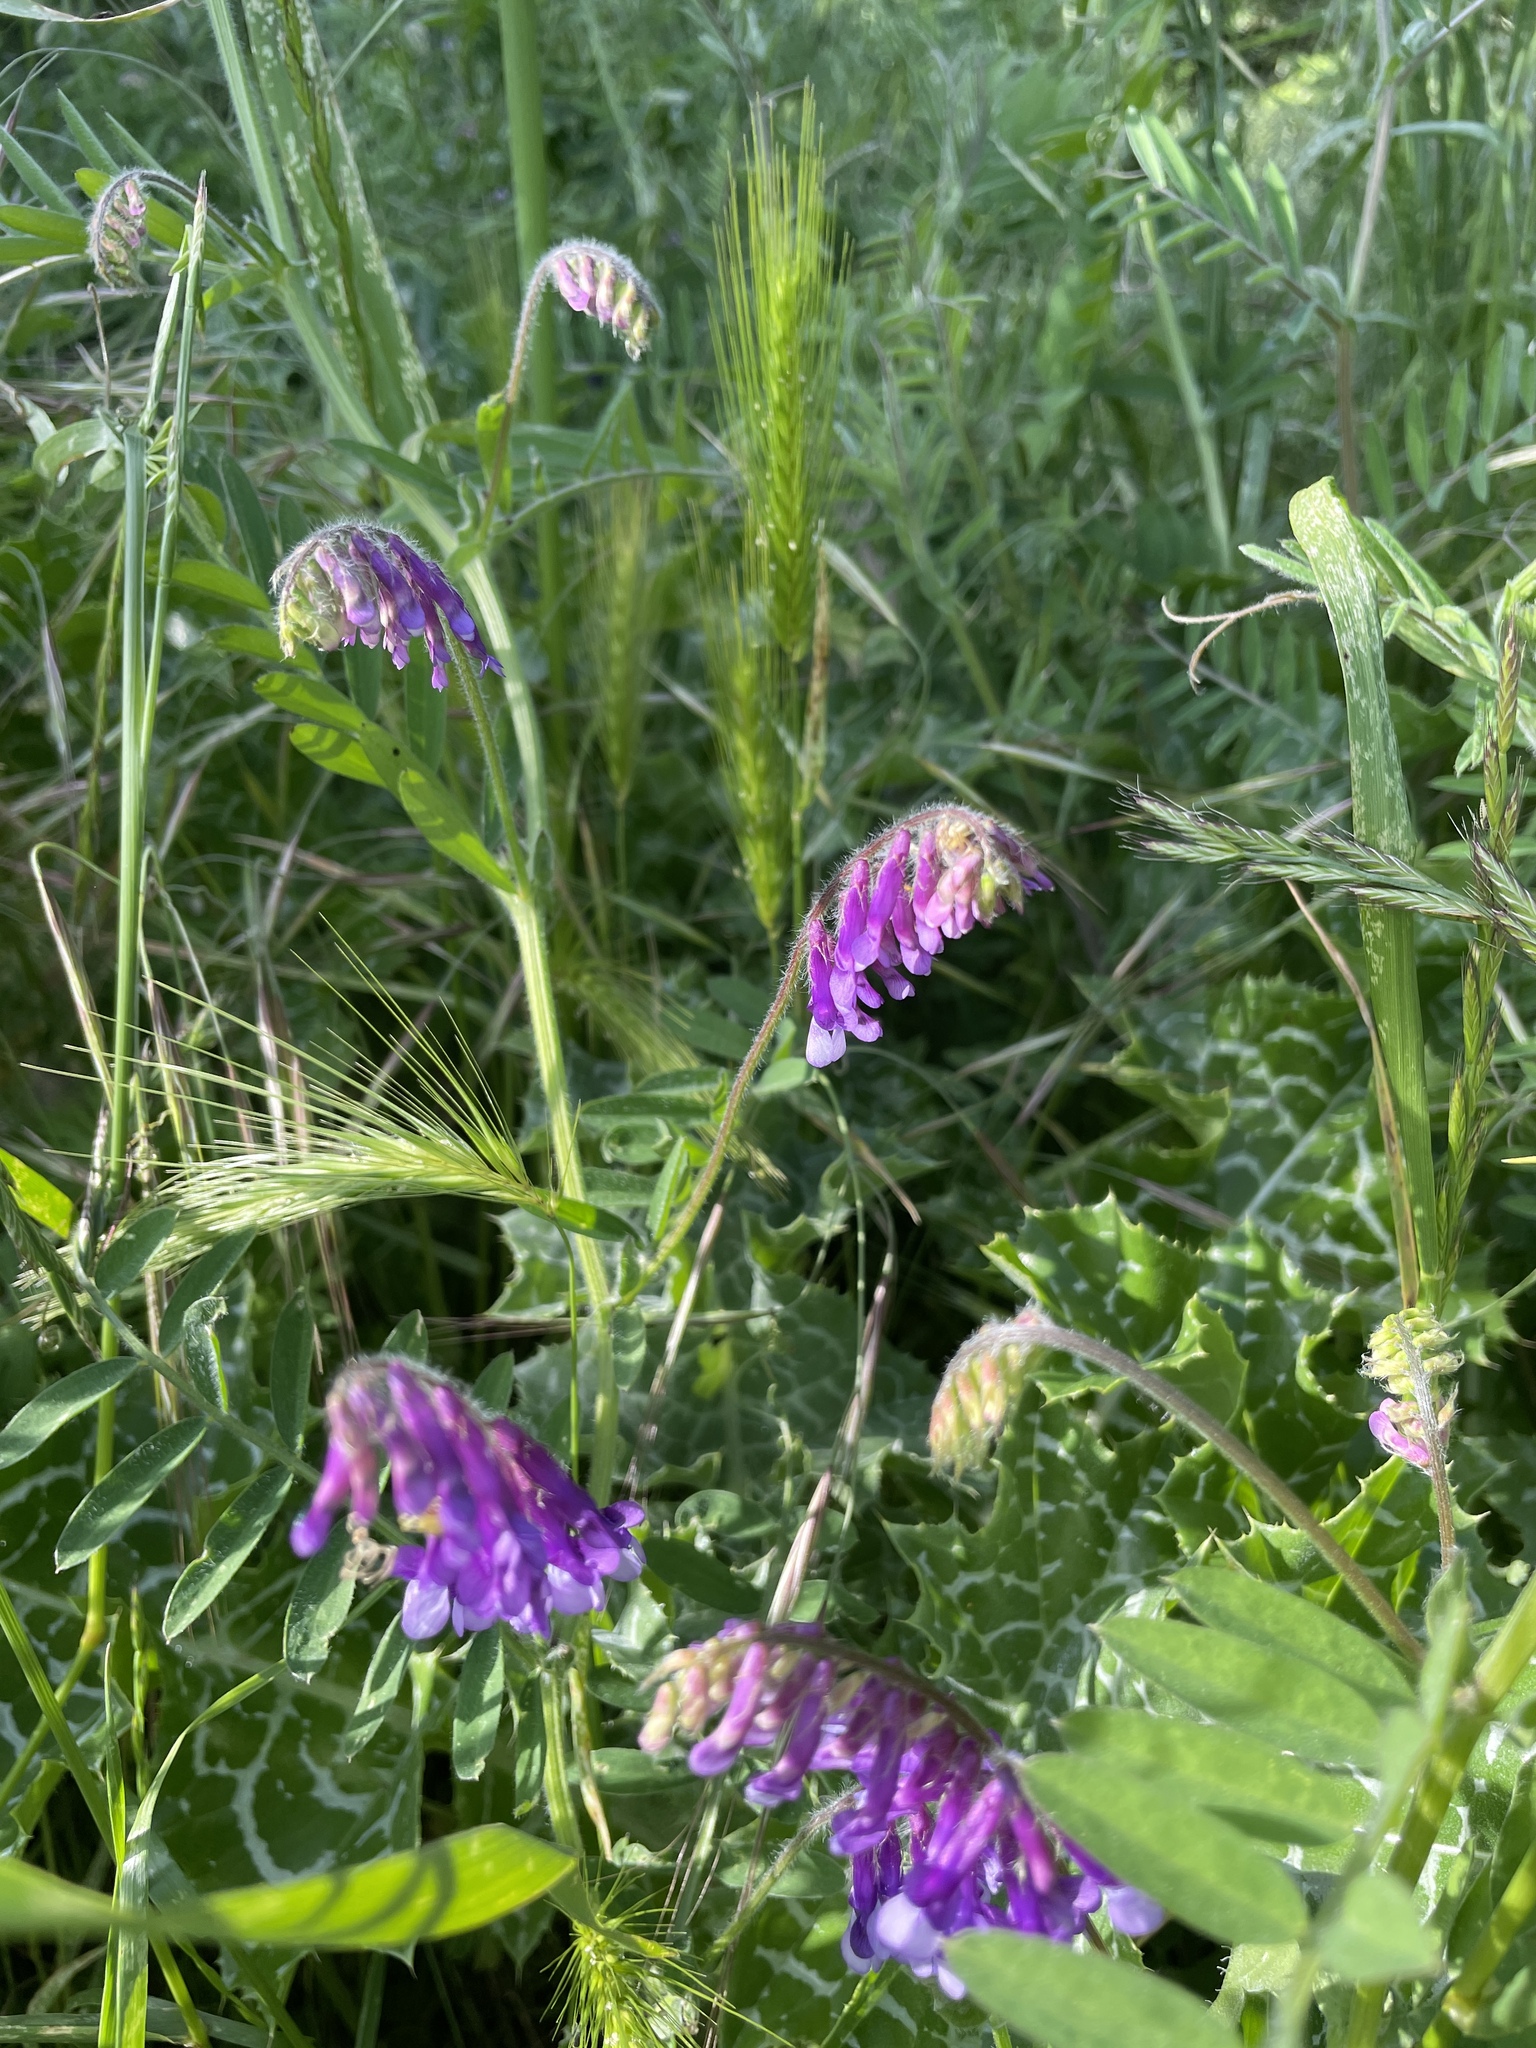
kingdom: Plantae
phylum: Tracheophyta
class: Magnoliopsida
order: Fabales
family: Fabaceae
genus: Vicia
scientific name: Vicia villosa
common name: Fodder vetch
